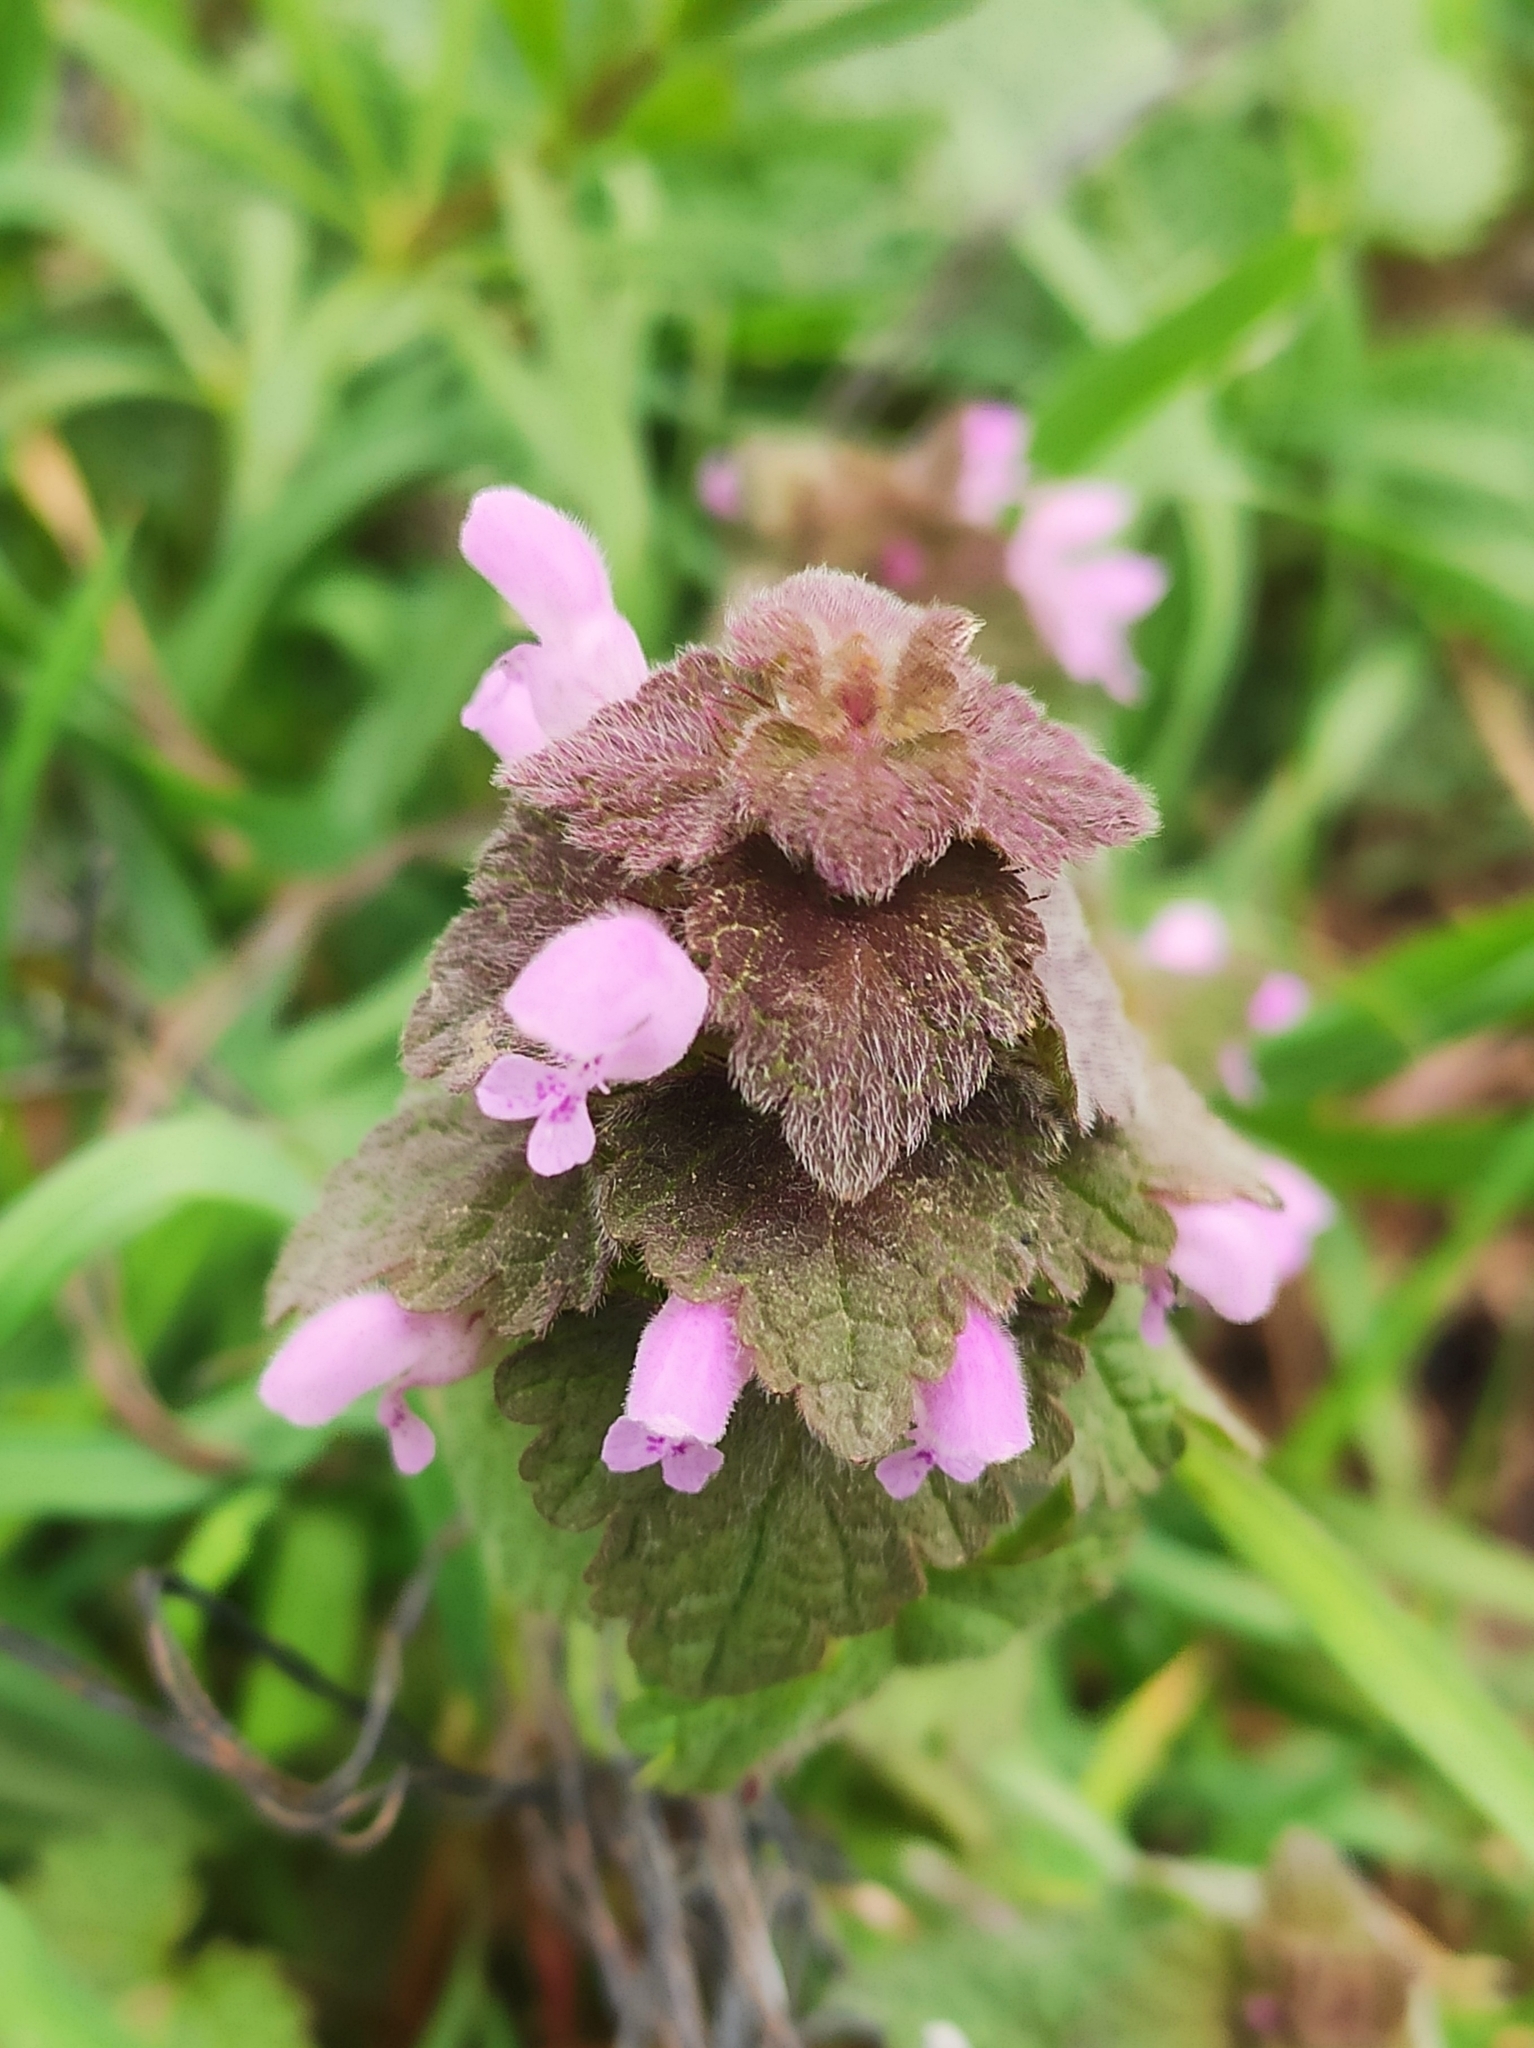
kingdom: Plantae
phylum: Tracheophyta
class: Magnoliopsida
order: Lamiales
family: Lamiaceae
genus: Lamium
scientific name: Lamium purpureum
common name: Red dead-nettle
